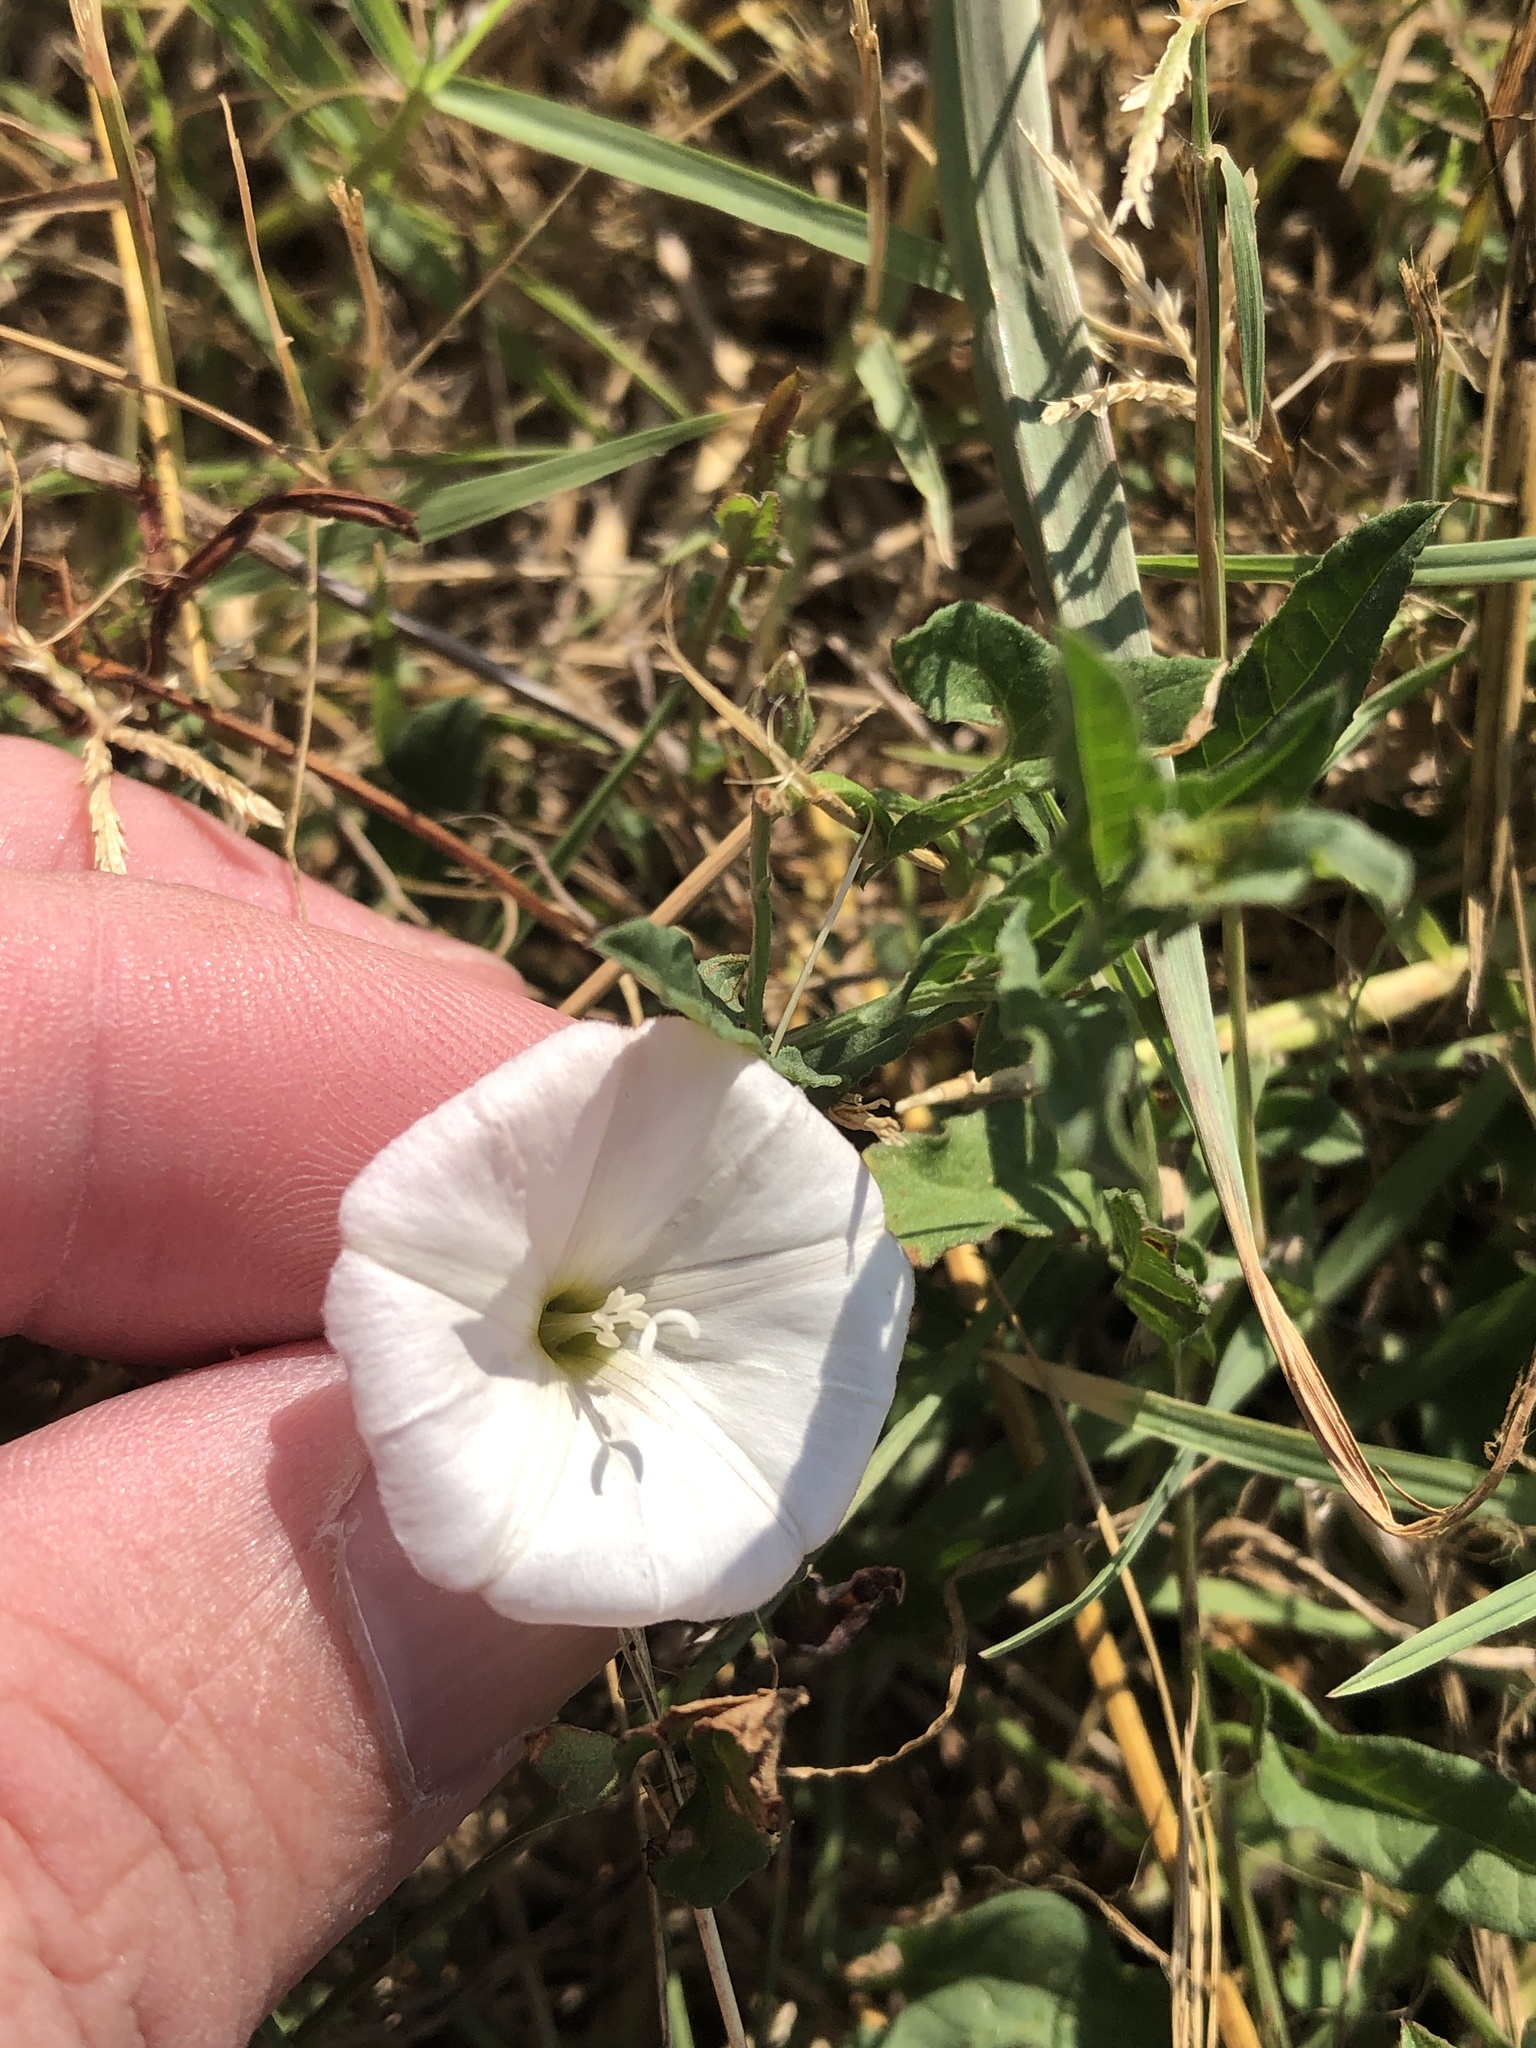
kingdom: Plantae
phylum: Tracheophyta
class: Magnoliopsida
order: Solanales
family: Convolvulaceae
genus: Convolvulus
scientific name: Convolvulus arvensis
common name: Field bindweed
